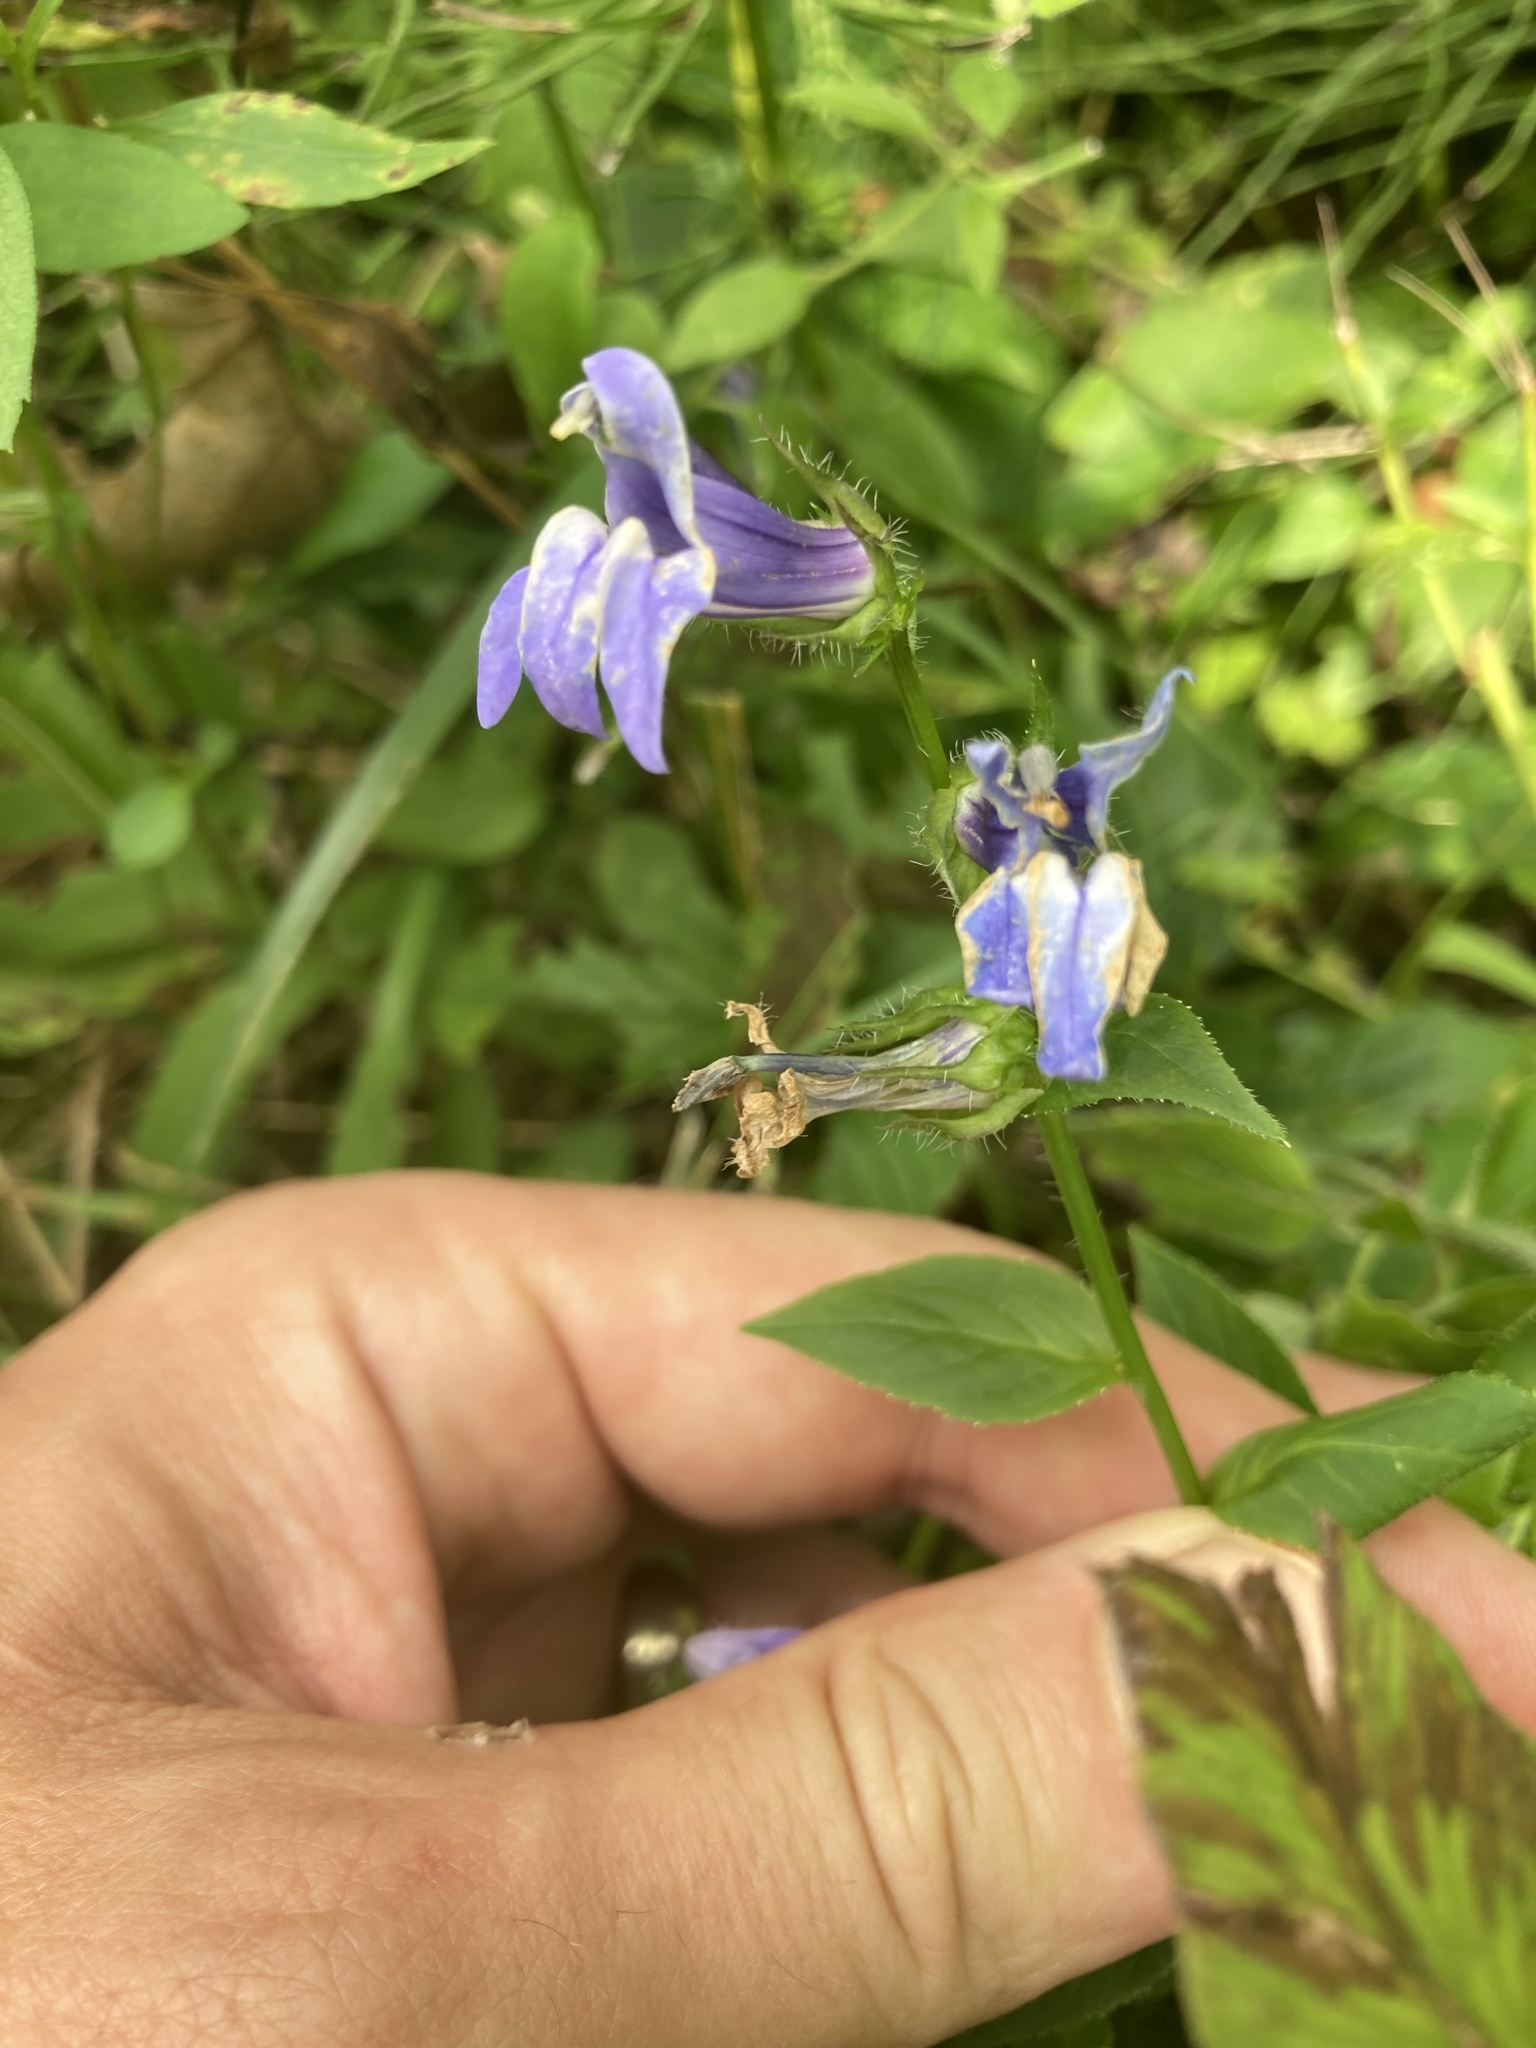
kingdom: Plantae
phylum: Tracheophyta
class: Magnoliopsida
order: Asterales
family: Campanulaceae
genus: Lobelia
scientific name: Lobelia siphilitica
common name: Great lobelia
